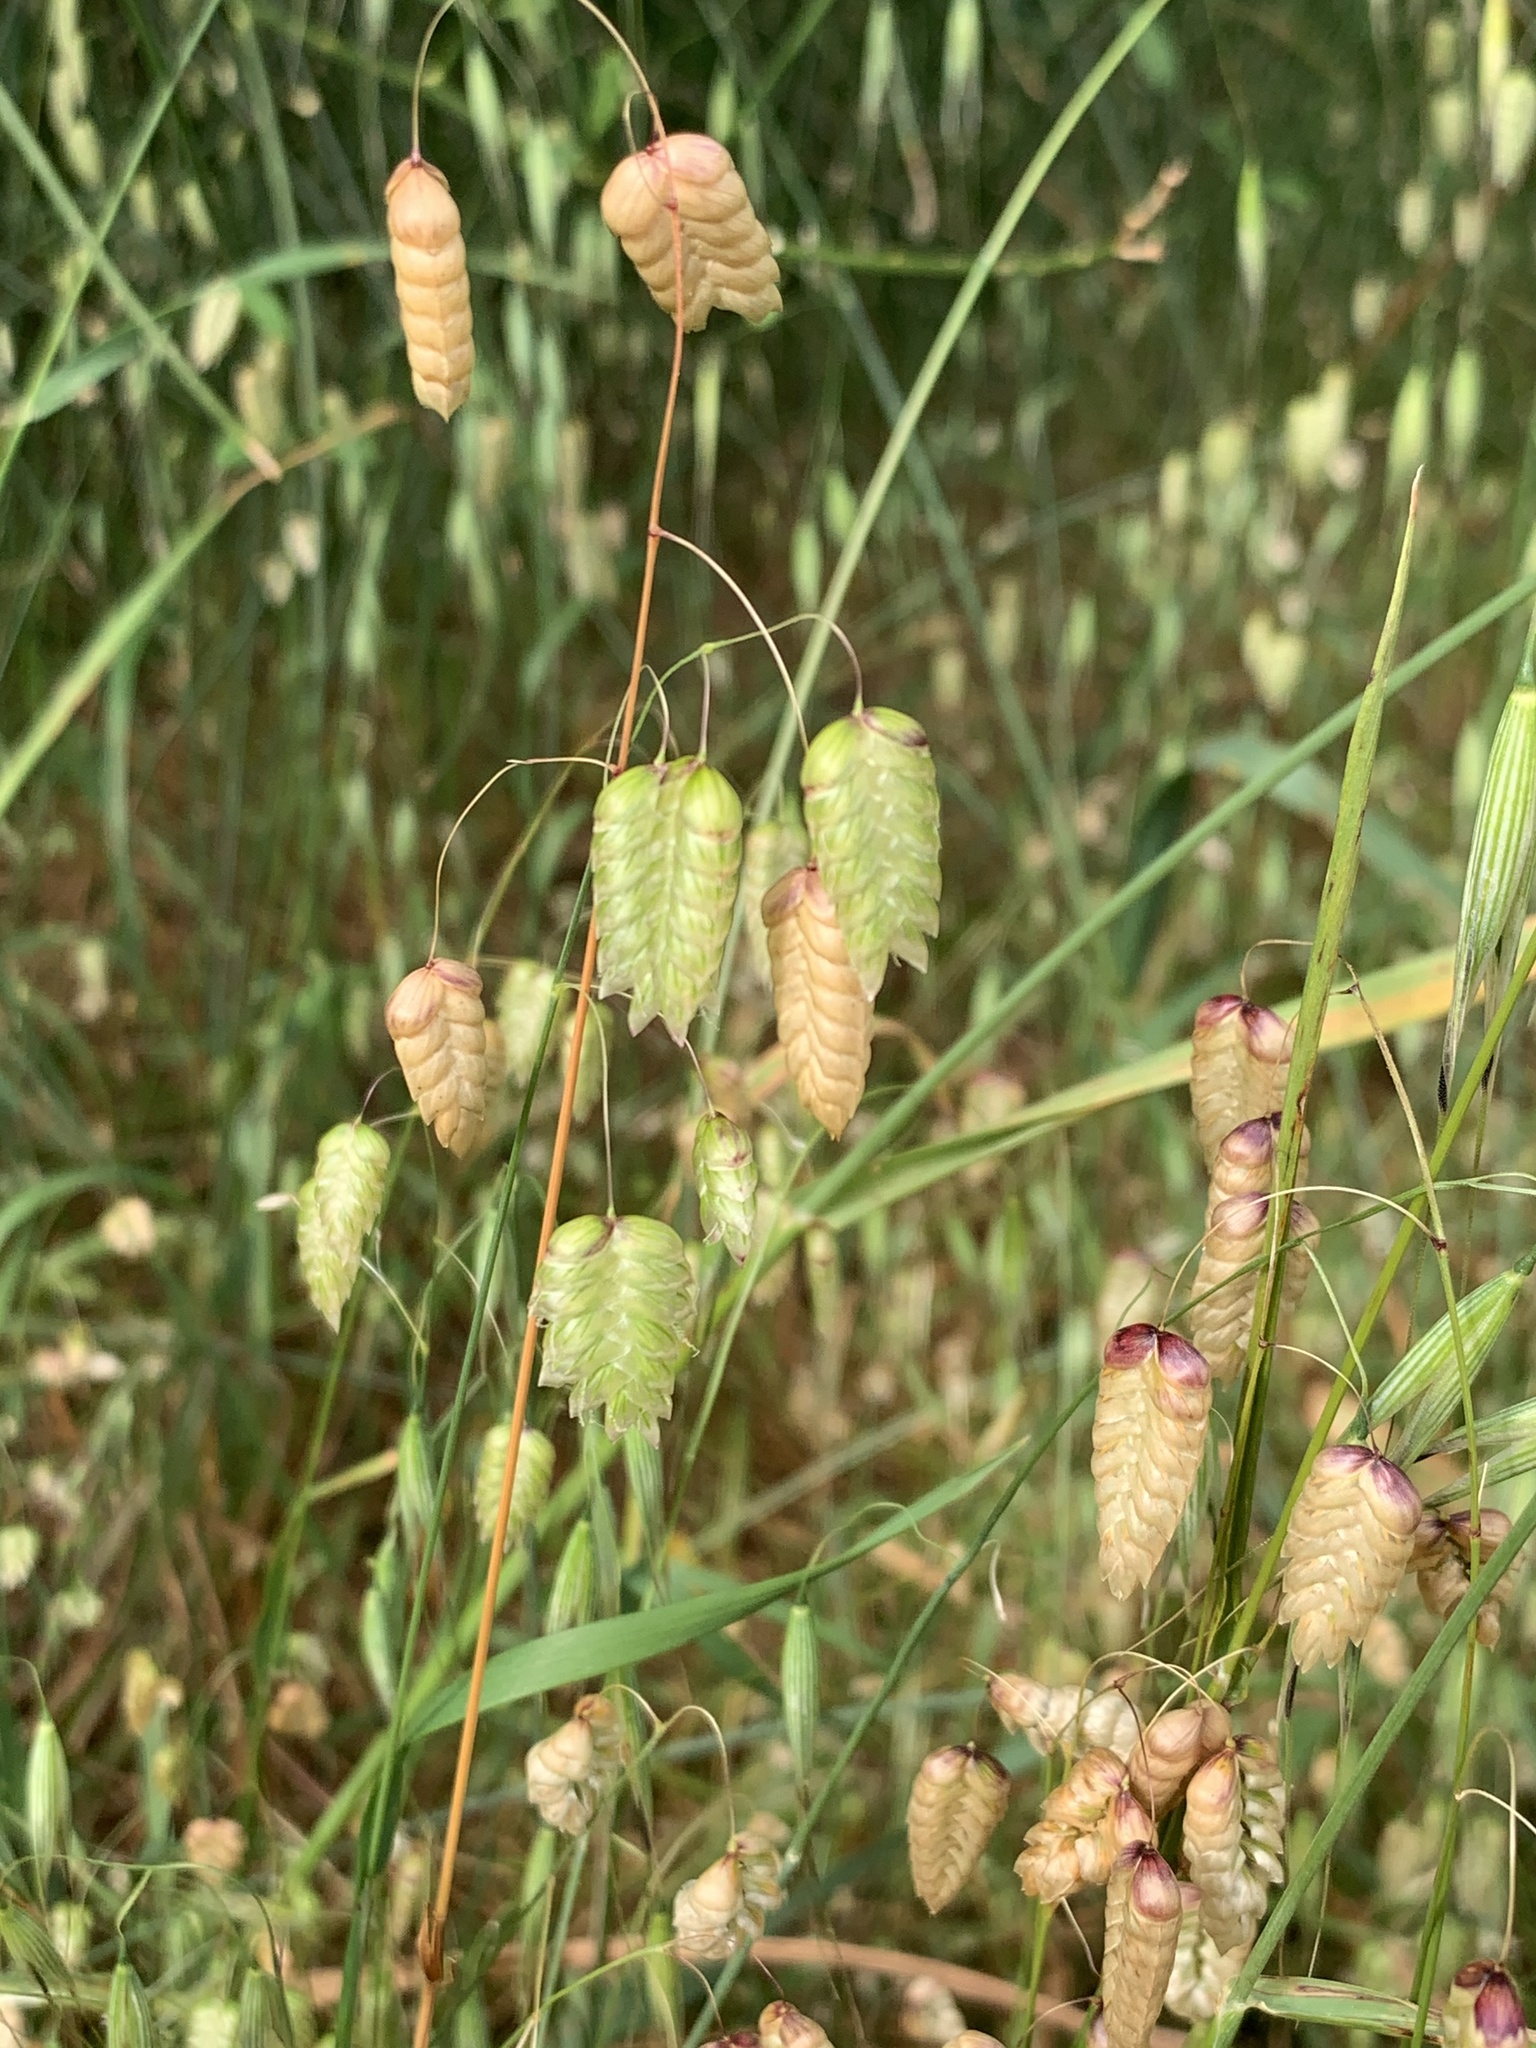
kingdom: Plantae
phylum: Tracheophyta
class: Liliopsida
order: Poales
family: Poaceae
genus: Briza
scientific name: Briza maxima
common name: Big quakinggrass
